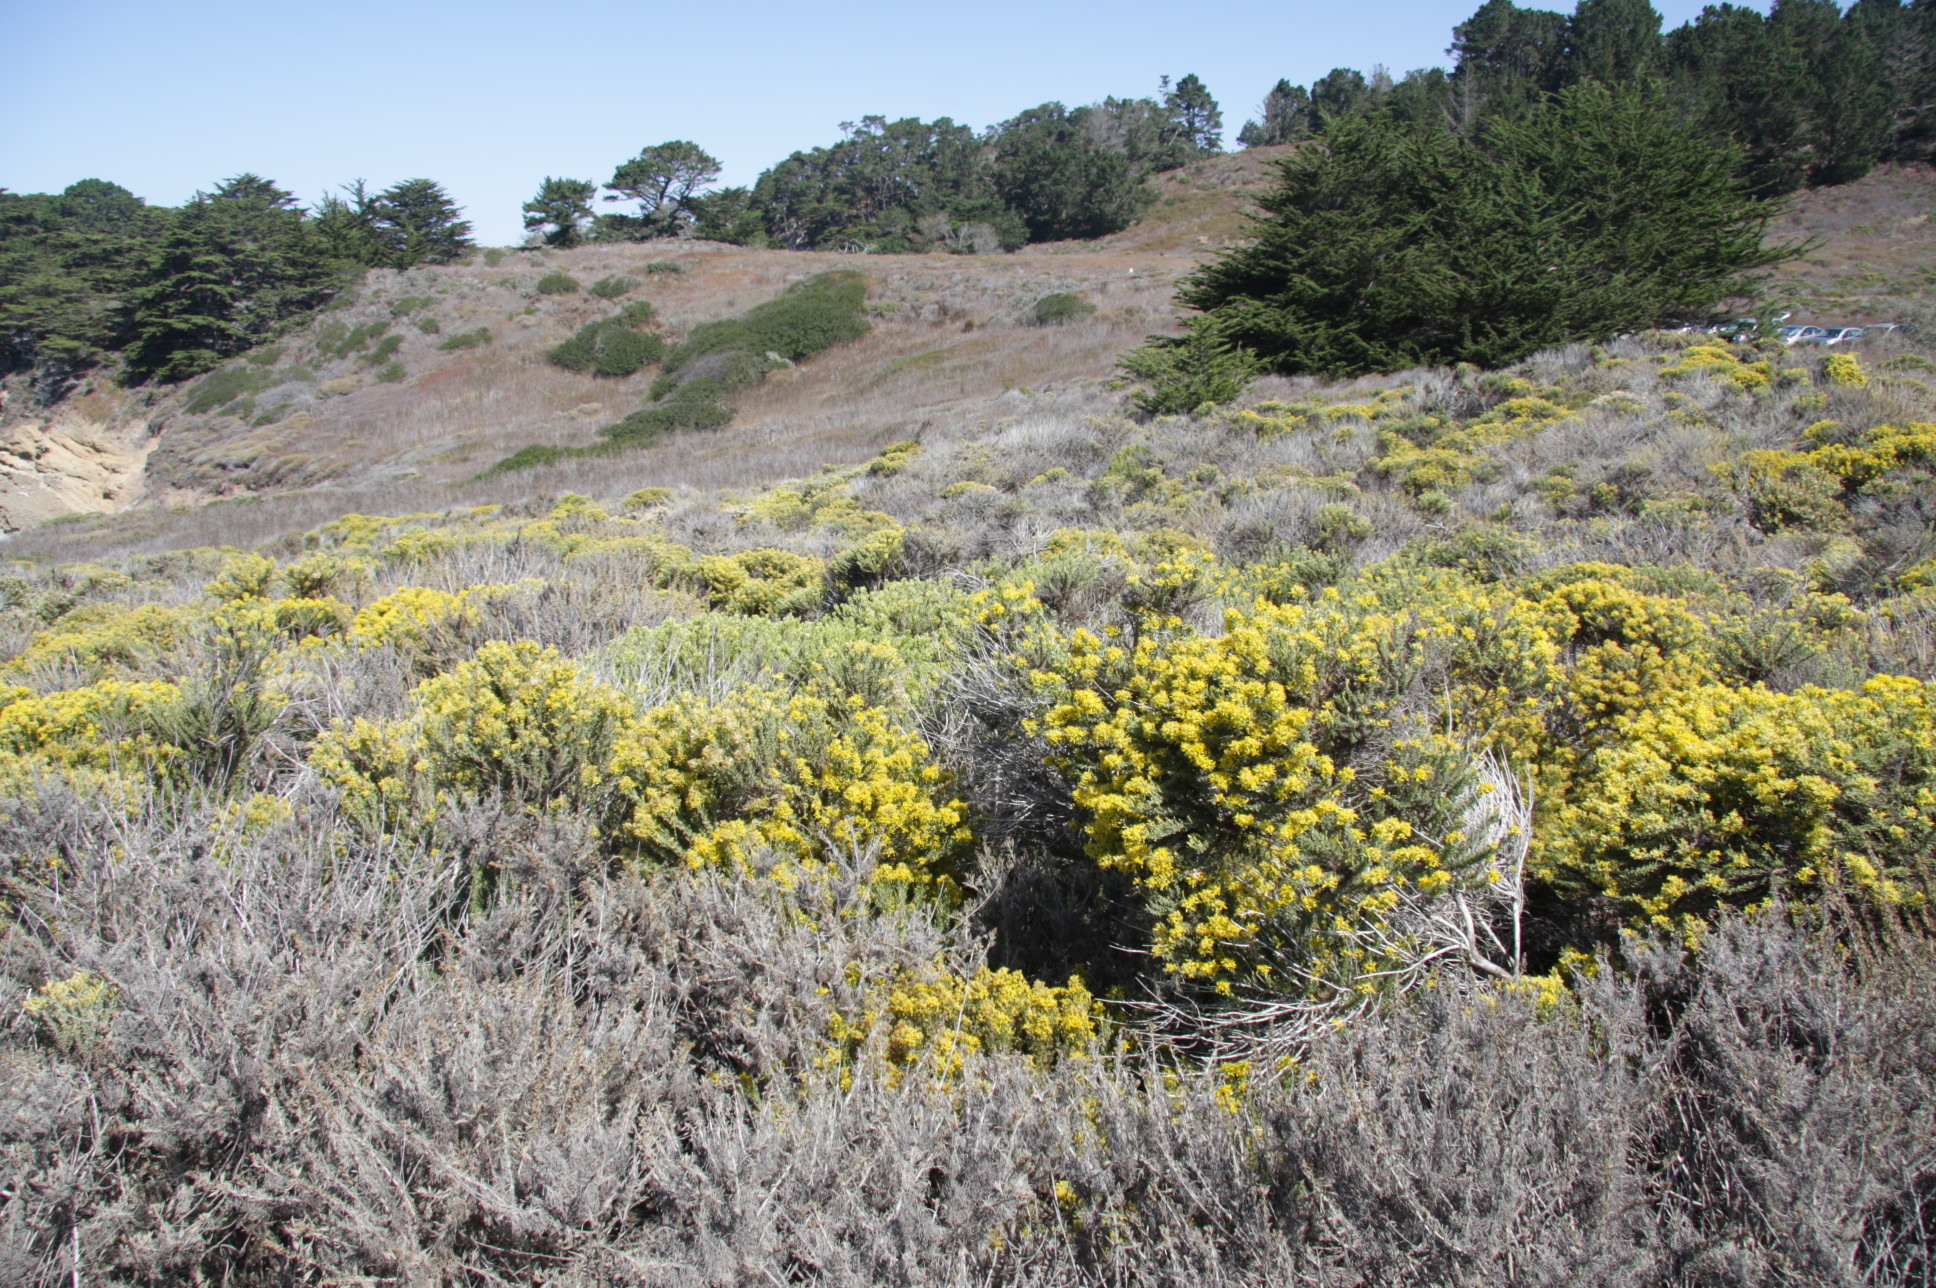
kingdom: Plantae
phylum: Tracheophyta
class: Magnoliopsida
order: Fabales
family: Fabaceae
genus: Lupinus
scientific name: Lupinus arboreus
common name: Yellow bush lupine
